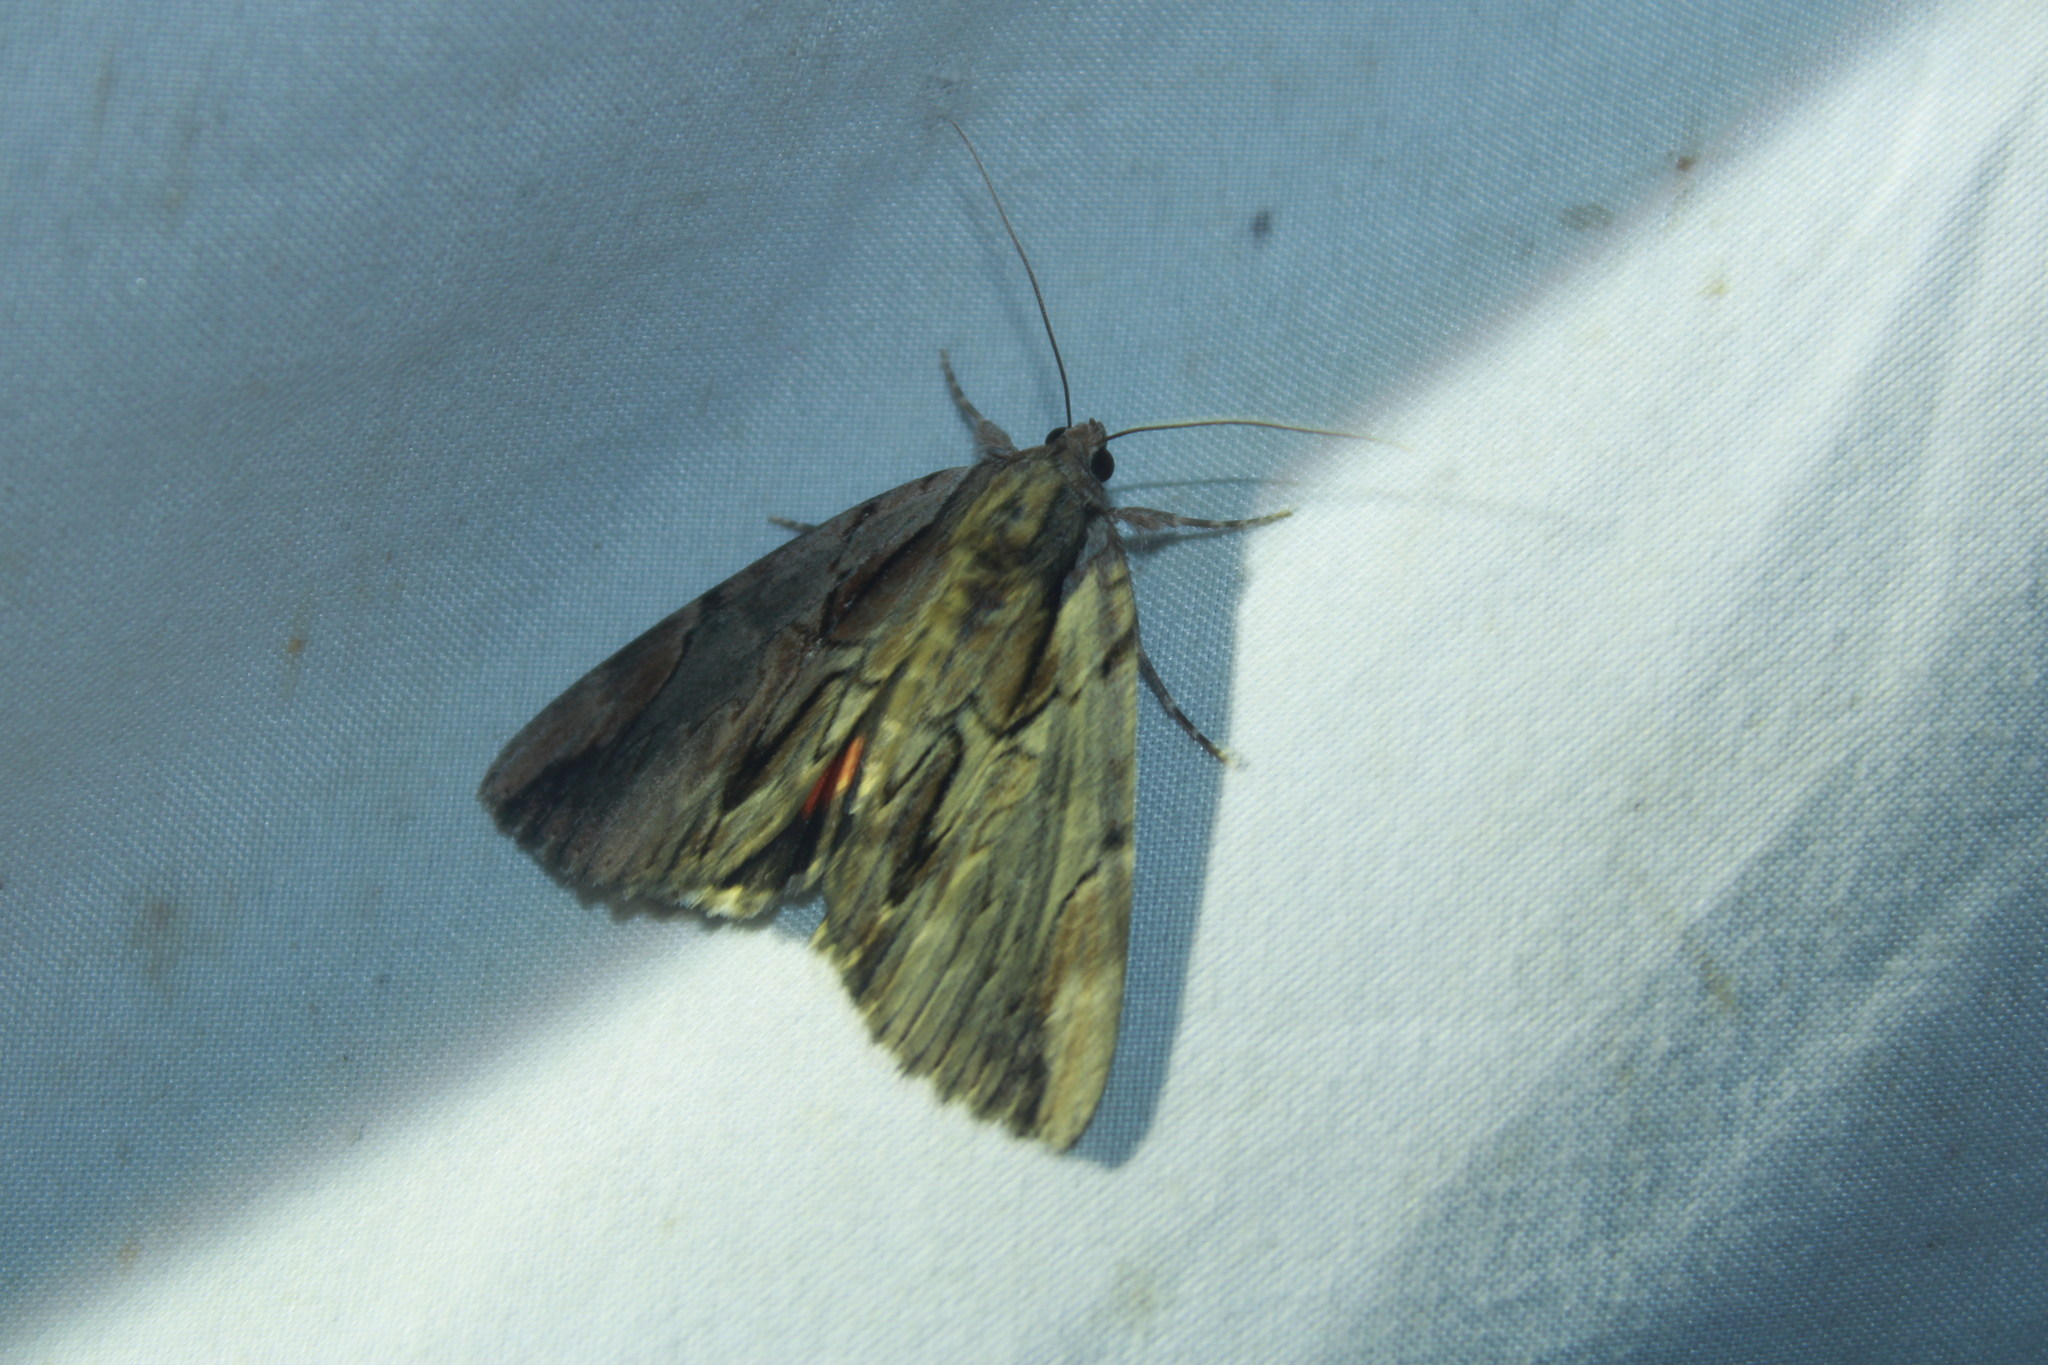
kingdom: Animalia
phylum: Arthropoda
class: Insecta
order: Lepidoptera
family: Erebidae
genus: Catocala
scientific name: Catocala ultronia
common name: Ultronia underwing
